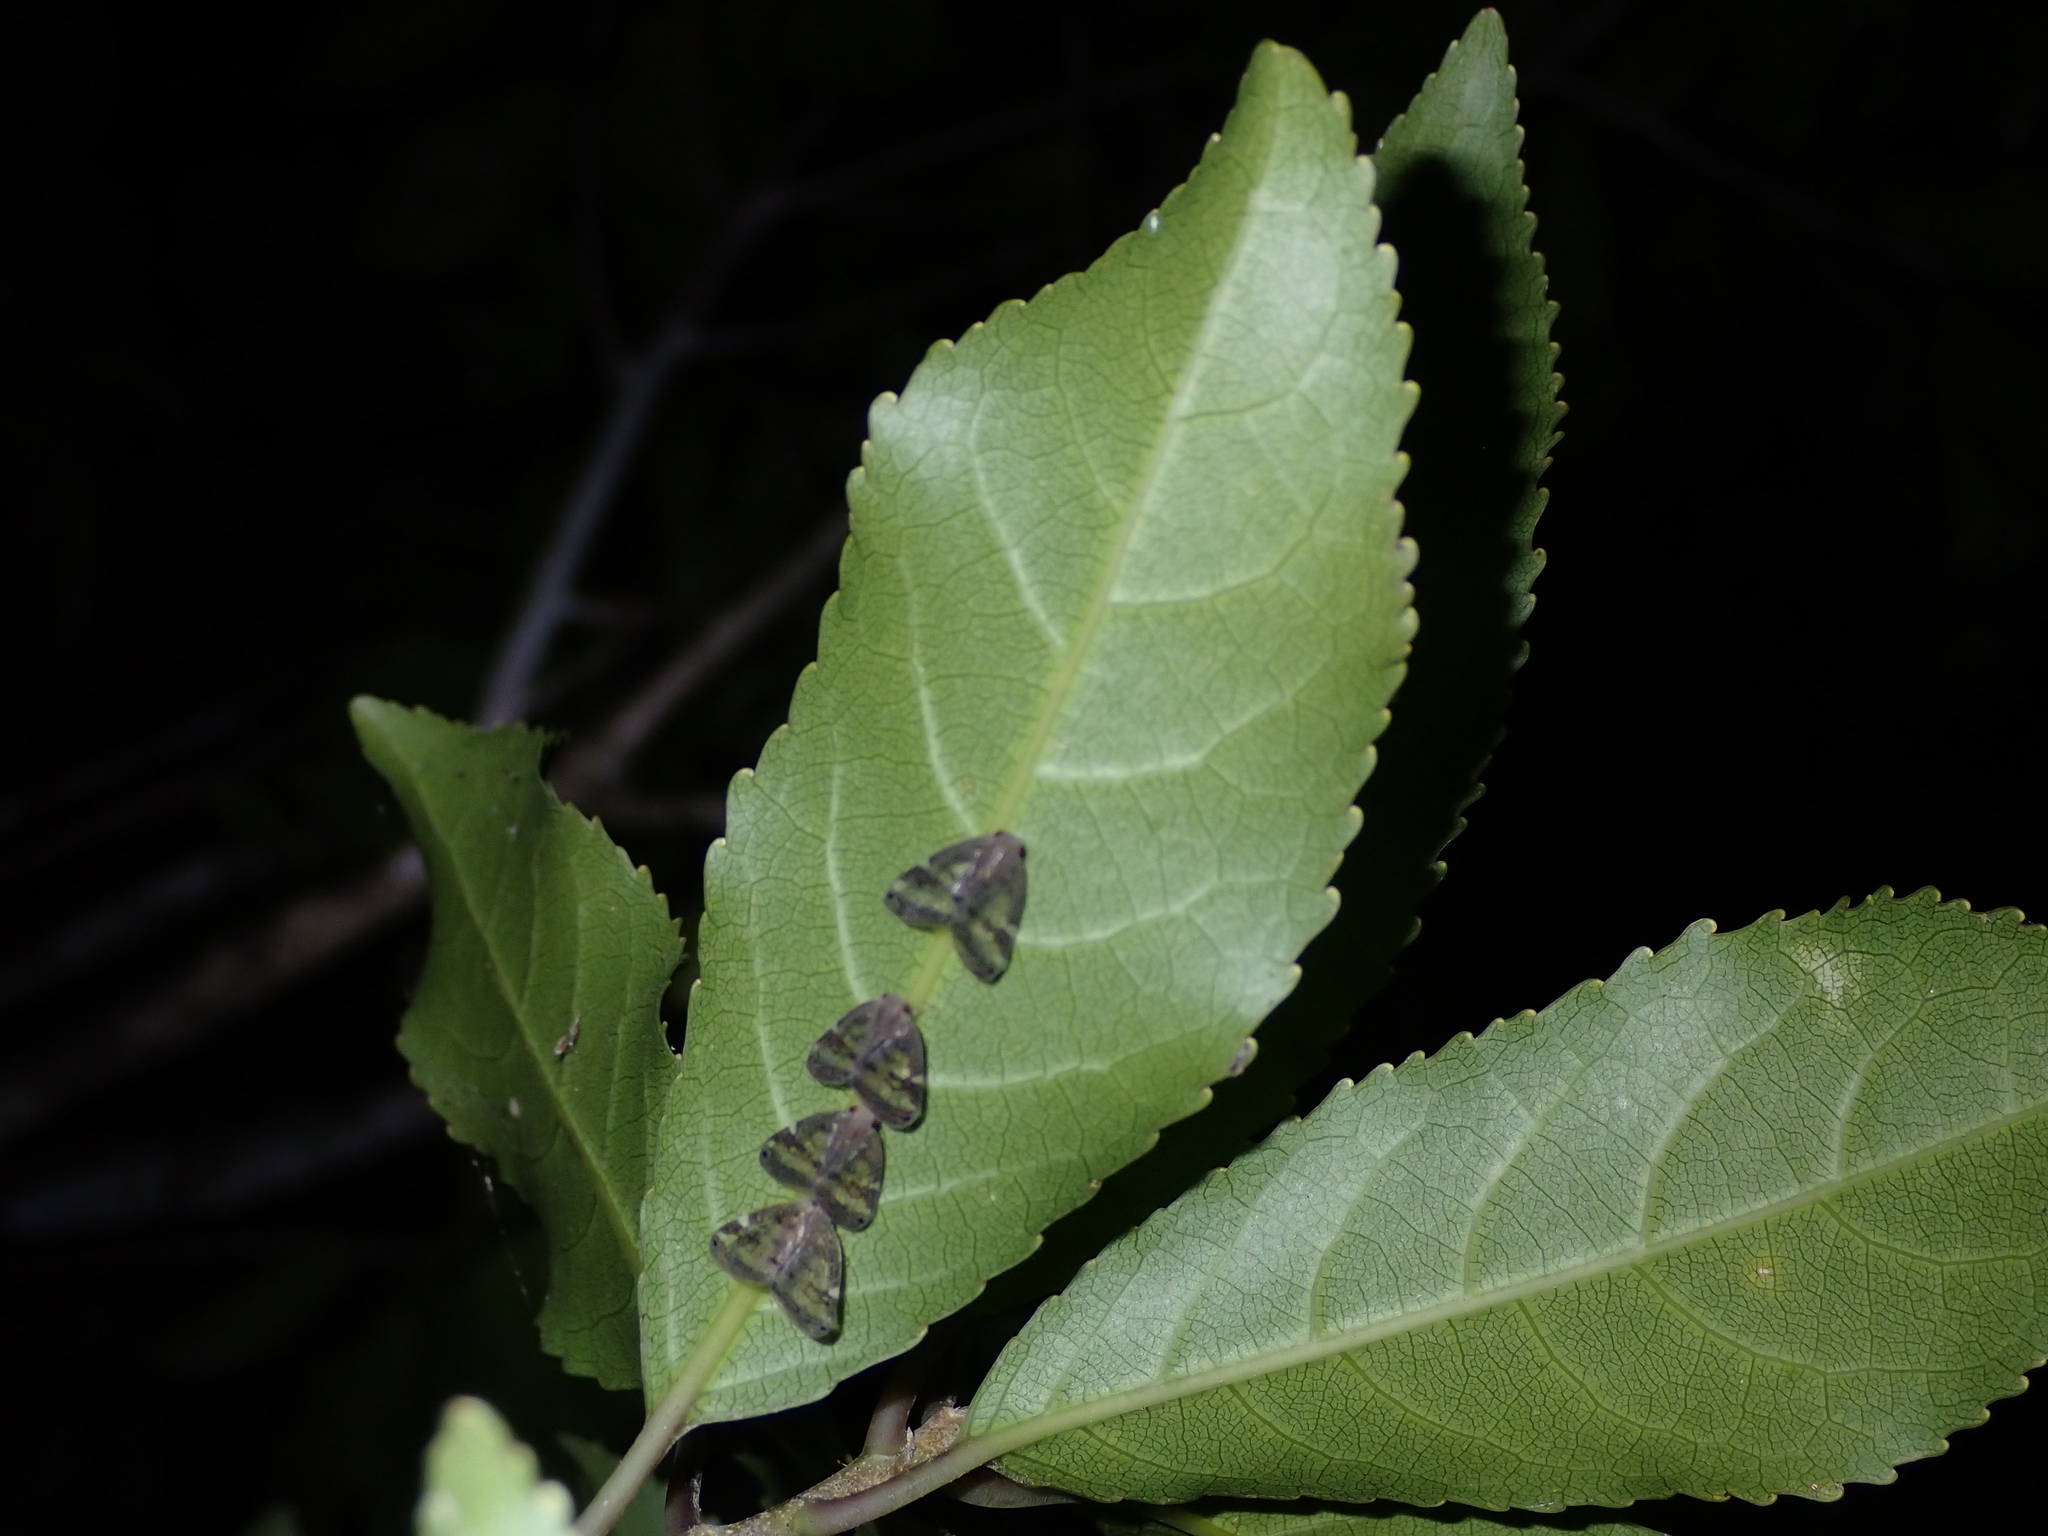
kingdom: Animalia
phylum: Arthropoda
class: Insecta
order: Hemiptera
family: Ricaniidae
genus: Scolypopa
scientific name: Scolypopa australis
